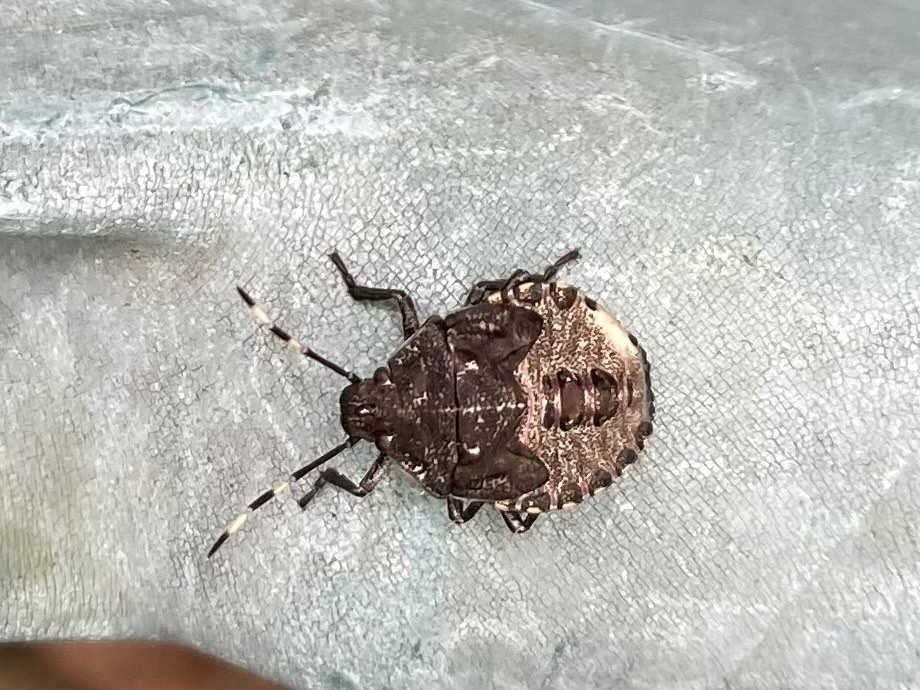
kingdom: Animalia
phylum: Arthropoda
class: Insecta
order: Hemiptera
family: Pentatomidae
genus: Rhaphigaster
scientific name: Rhaphigaster nebulosa
